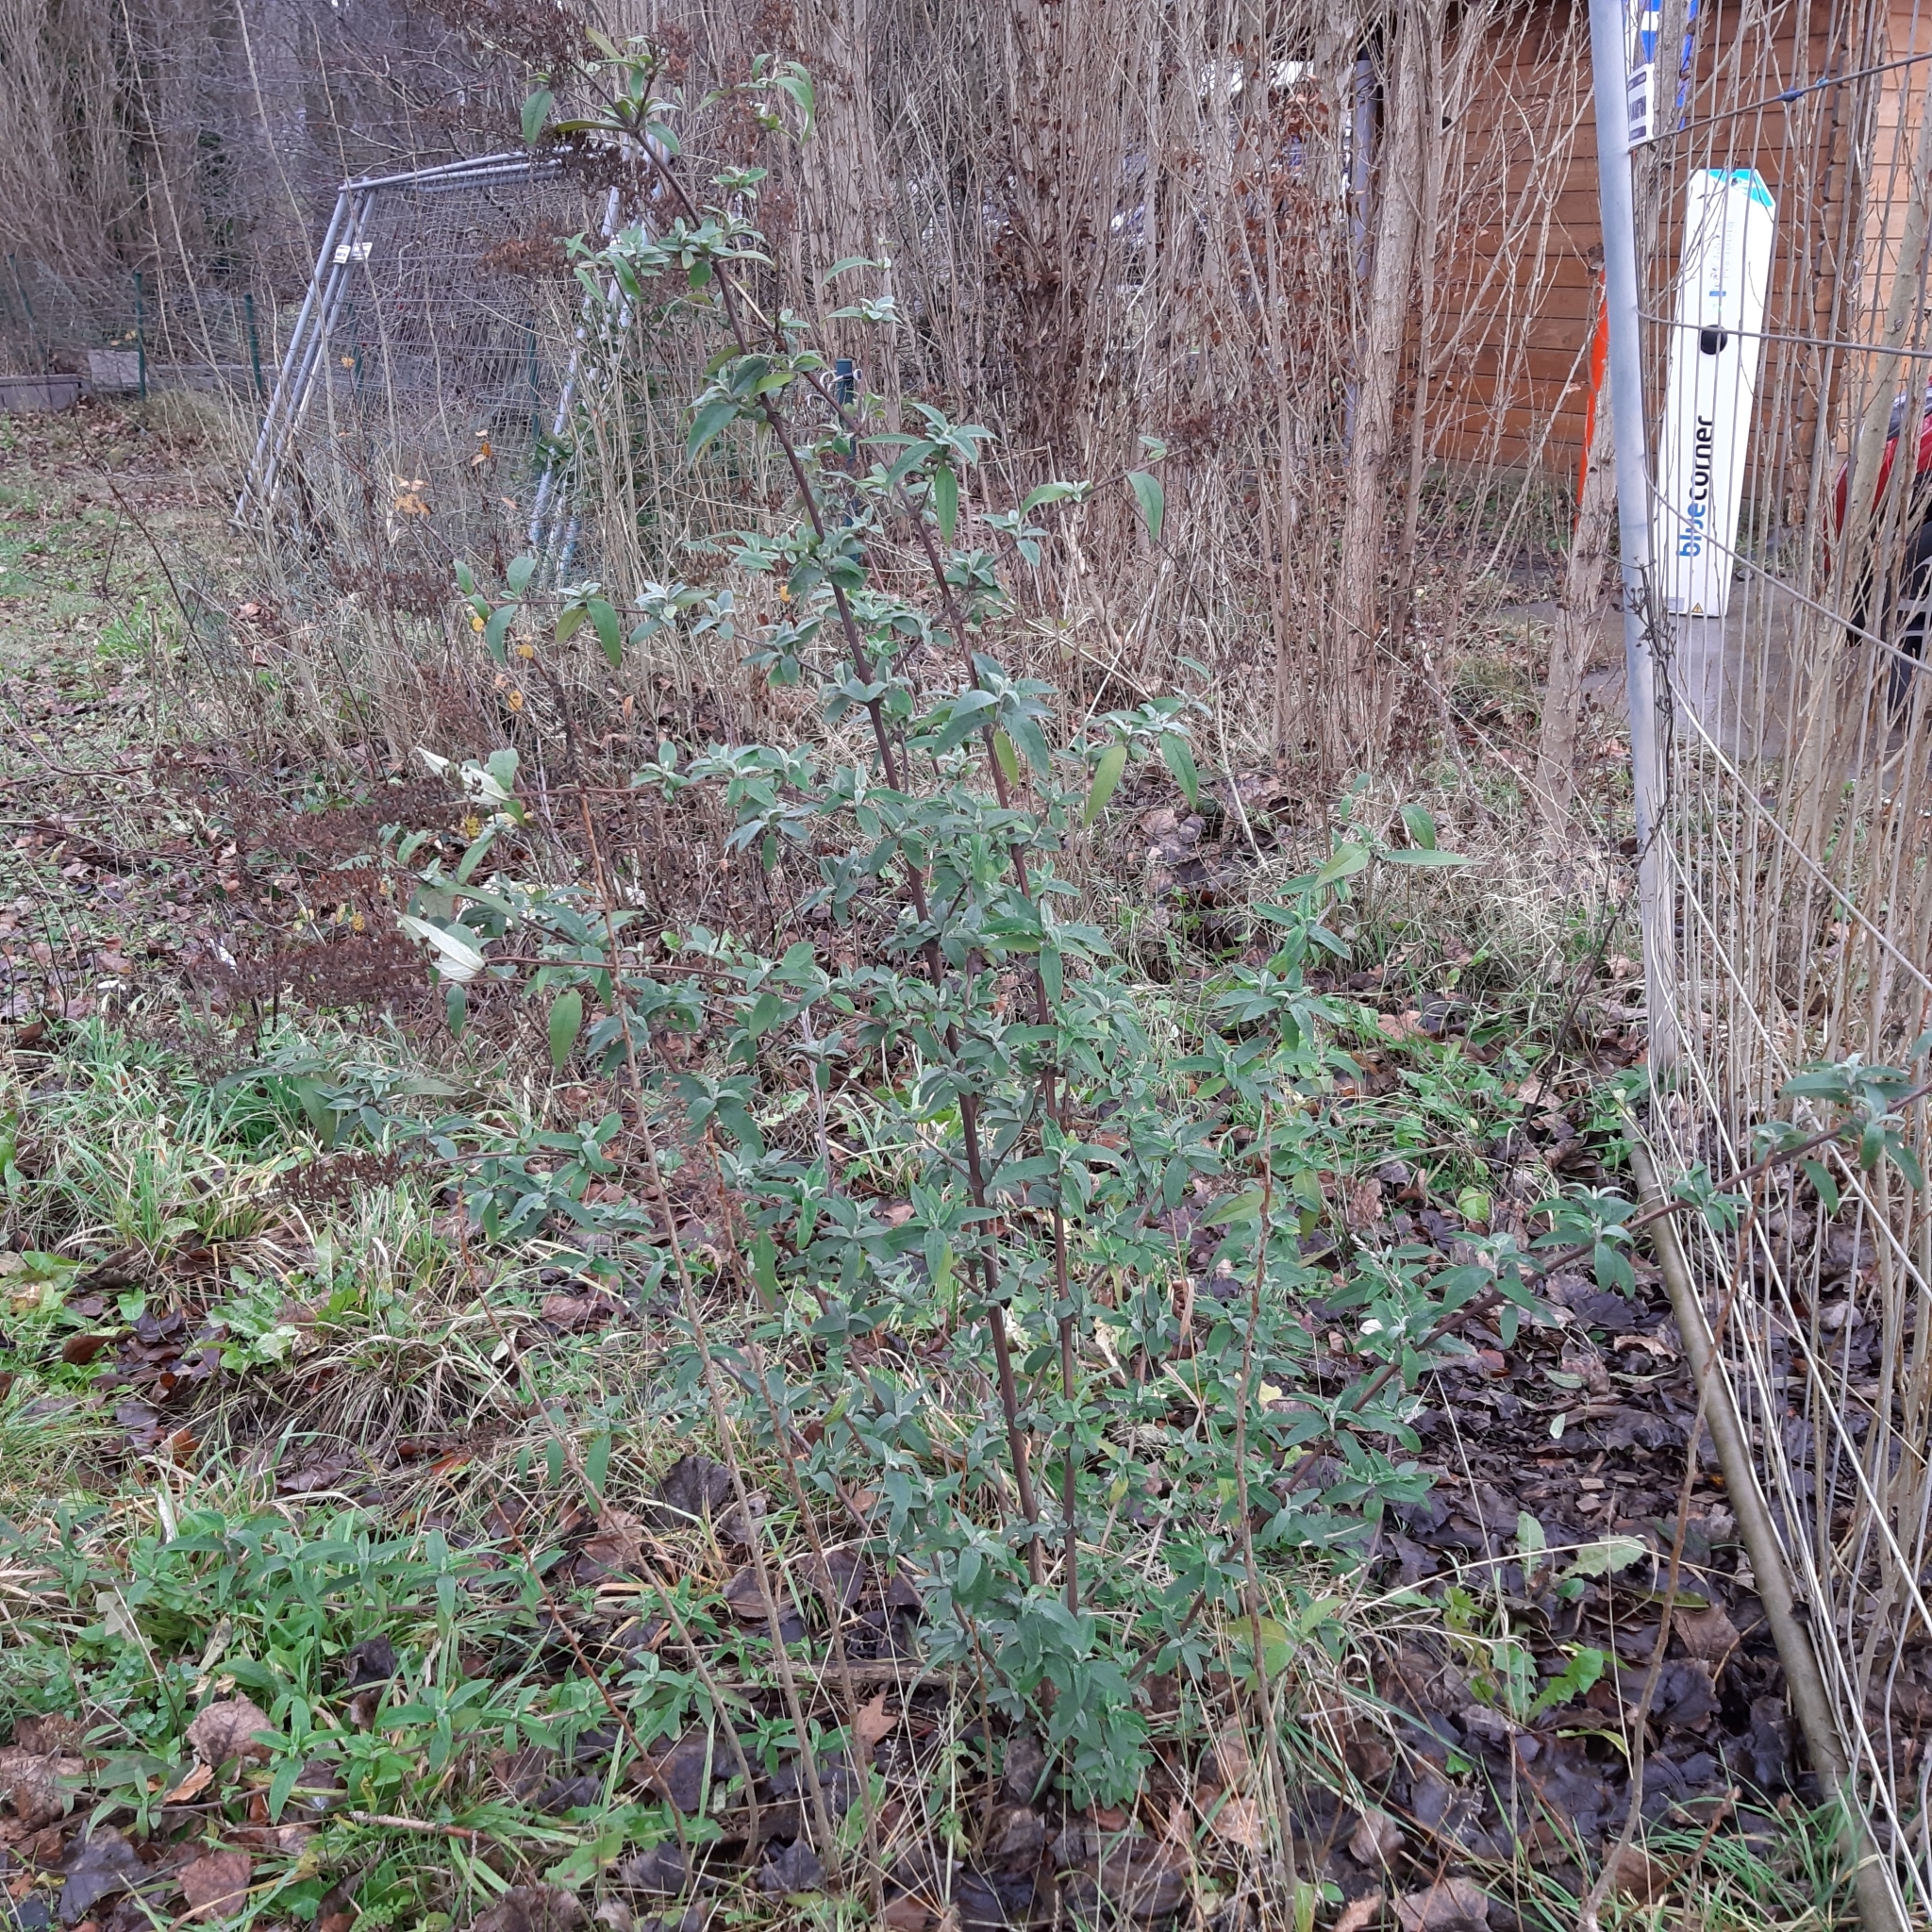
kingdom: Plantae
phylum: Tracheophyta
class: Magnoliopsida
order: Lamiales
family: Scrophulariaceae
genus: Buddleja
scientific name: Buddleja davidii
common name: Butterfly-bush
